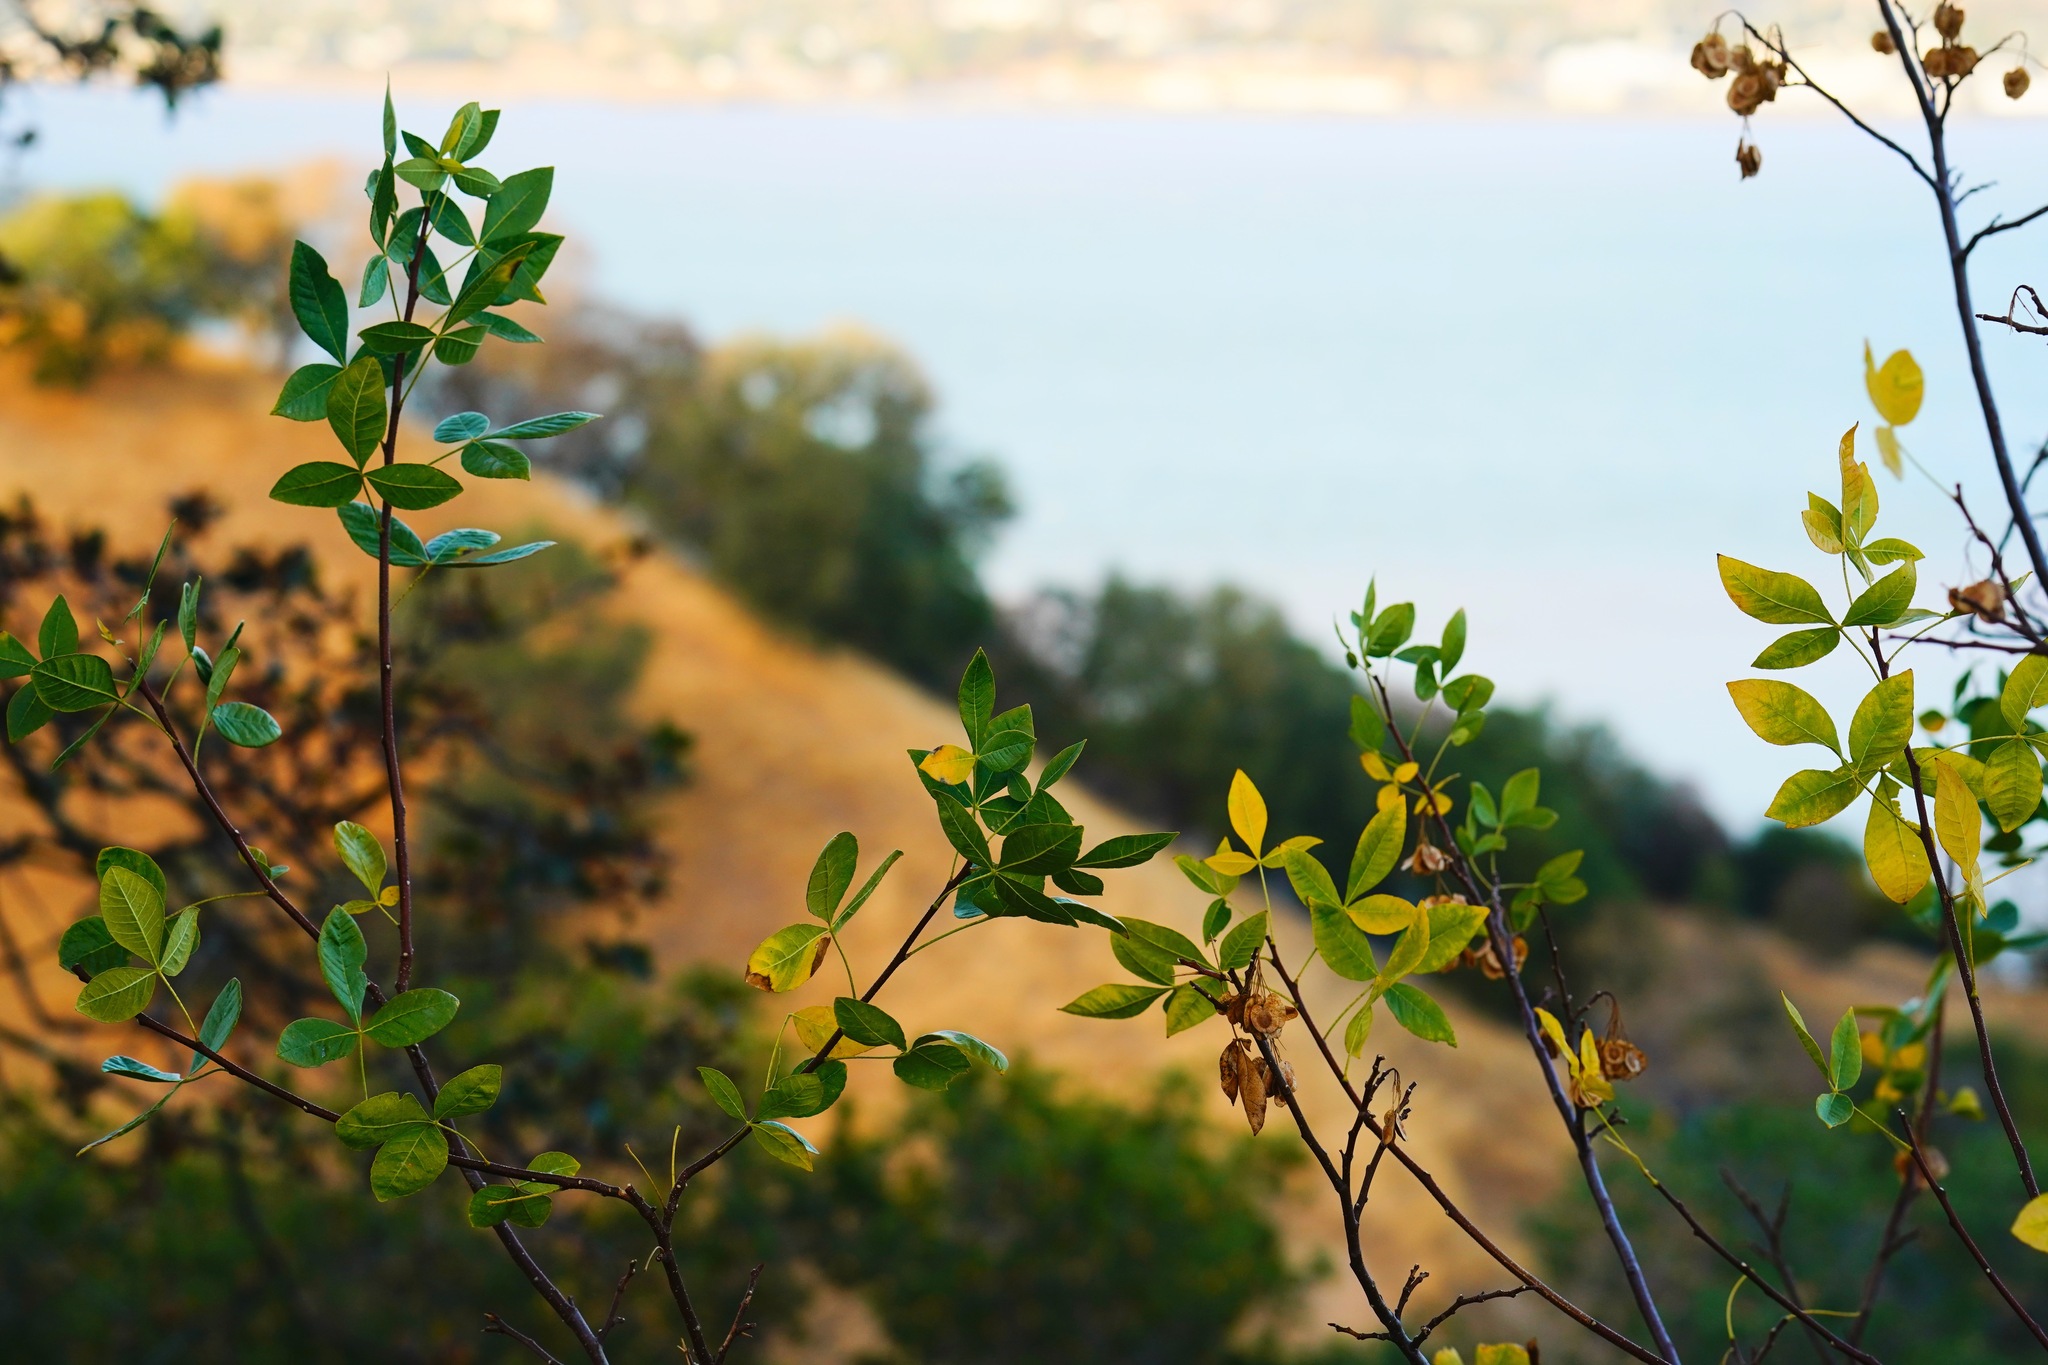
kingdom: Plantae
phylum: Tracheophyta
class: Magnoliopsida
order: Sapindales
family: Rutaceae
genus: Ptelea
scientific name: Ptelea crenulata
